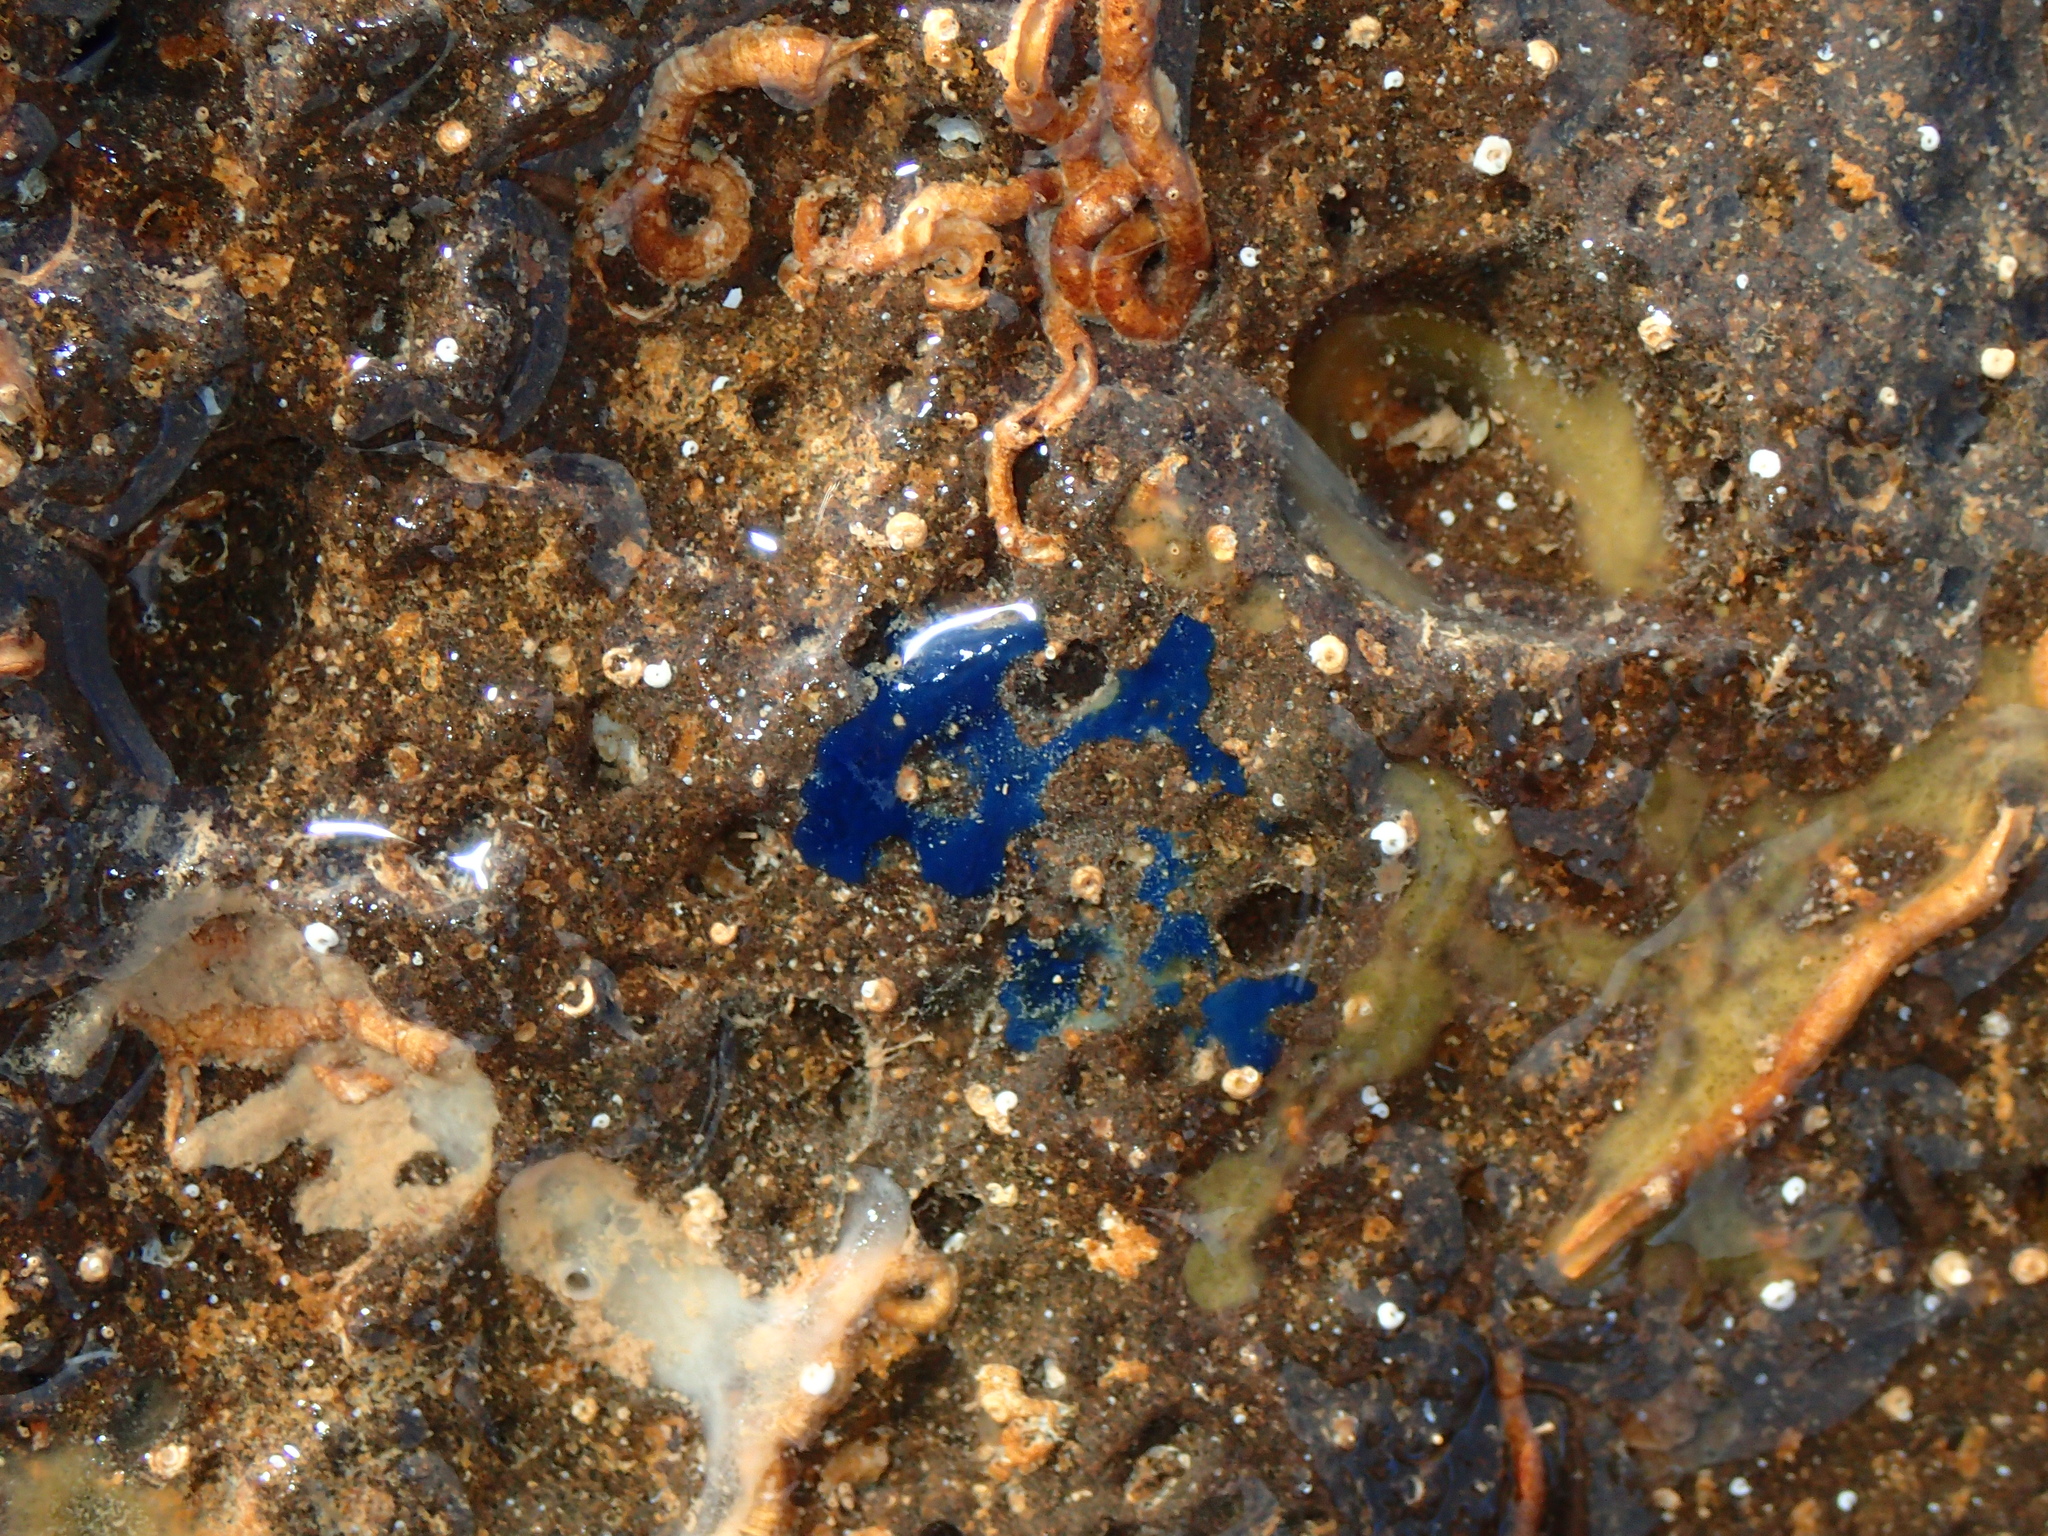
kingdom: Animalia
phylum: Porifera
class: Demospongiae
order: Suberitida
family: Suberitidae
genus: Terpios
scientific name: Terpios gelatinosus
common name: Blue encrusting sponge
